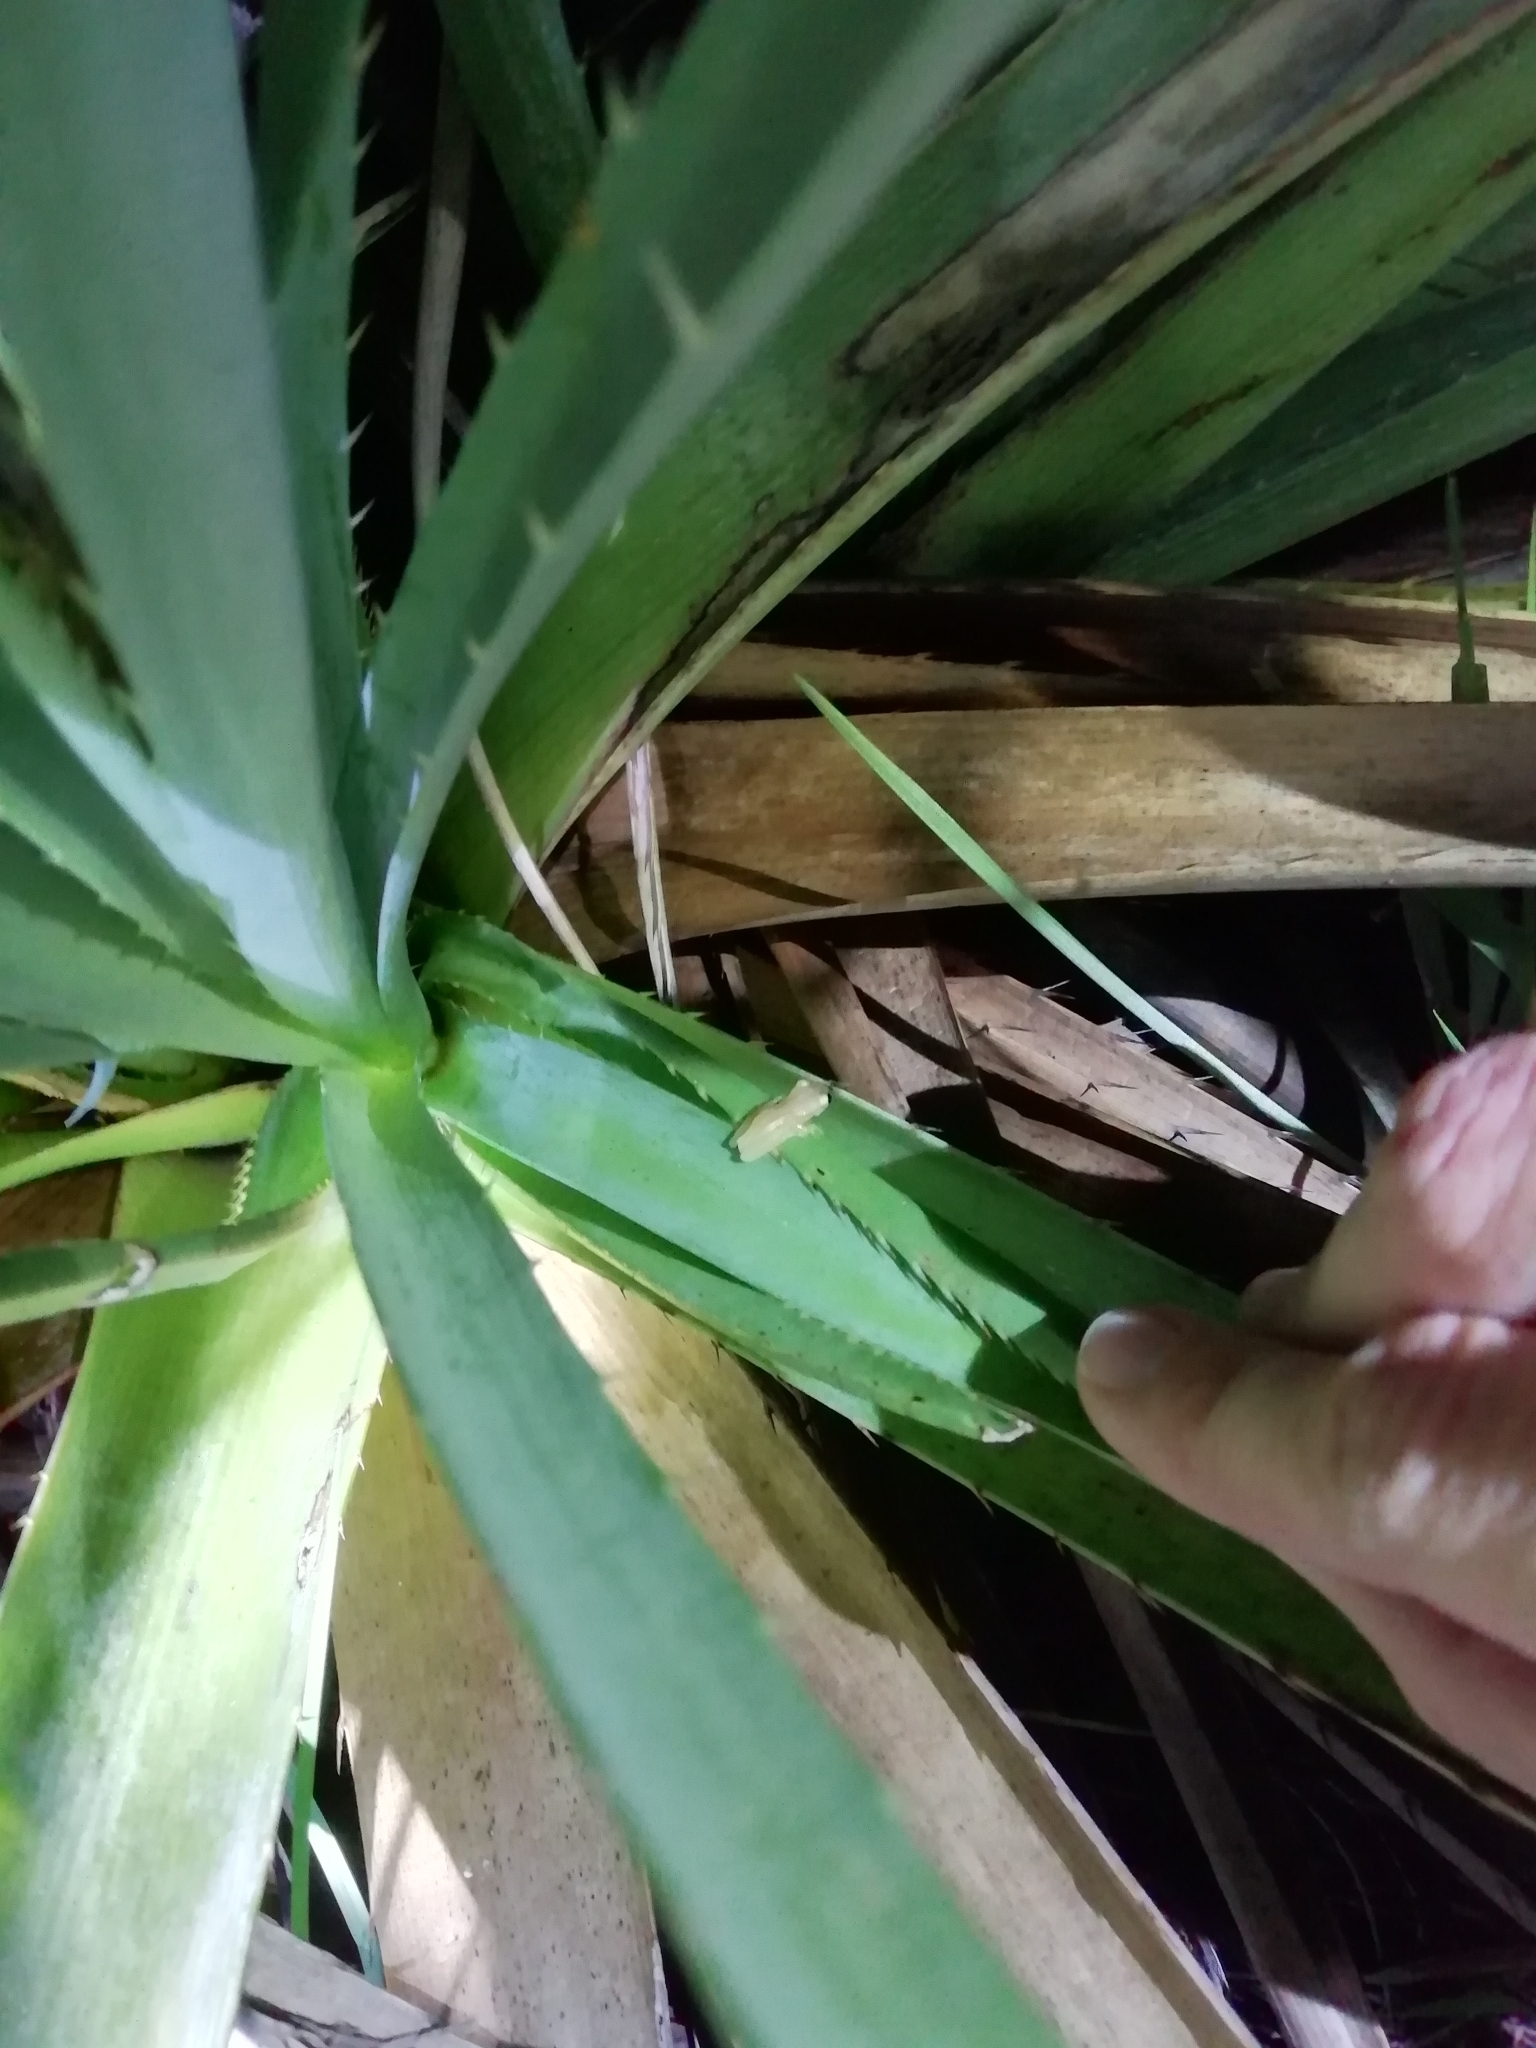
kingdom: Animalia
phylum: Chordata
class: Amphibia
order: Anura
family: Hylidae
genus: Dendropsophus
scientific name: Dendropsophus sanborni
